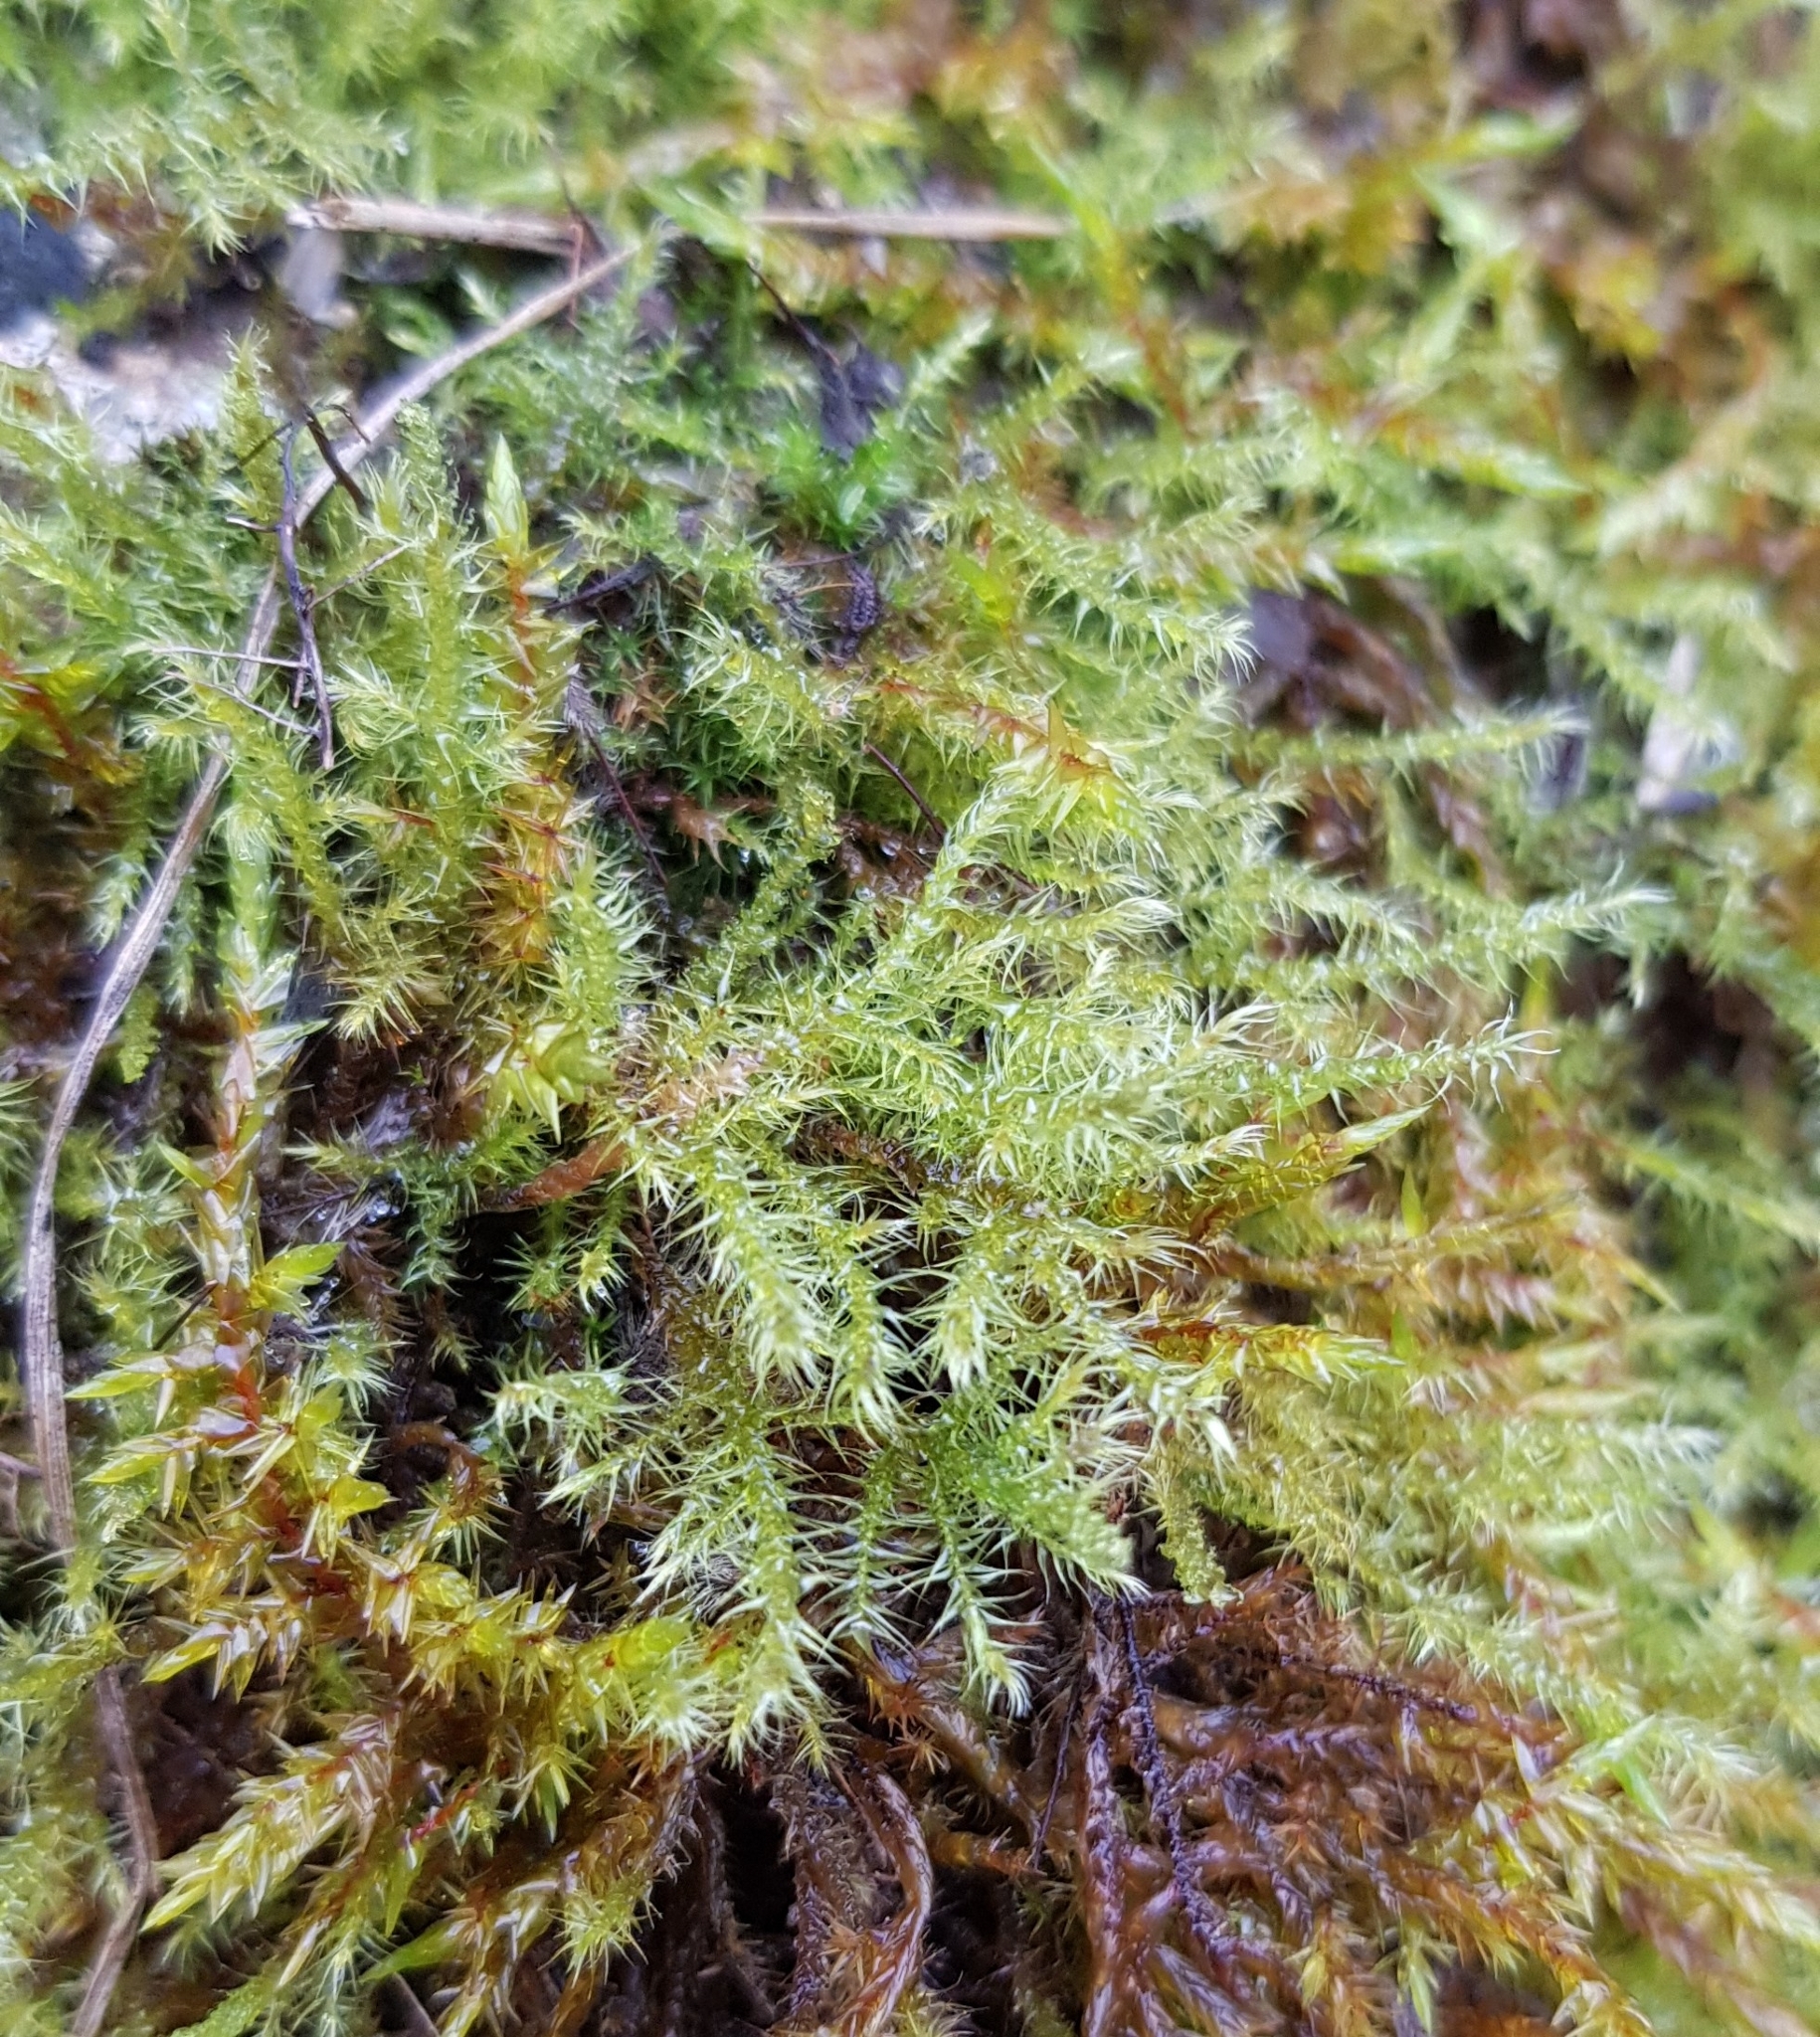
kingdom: Plantae
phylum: Bryophyta
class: Bryopsida
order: Hypnales
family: Amblystegiaceae
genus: Campylium
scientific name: Campylium protensum
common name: Dull starry fen moss
